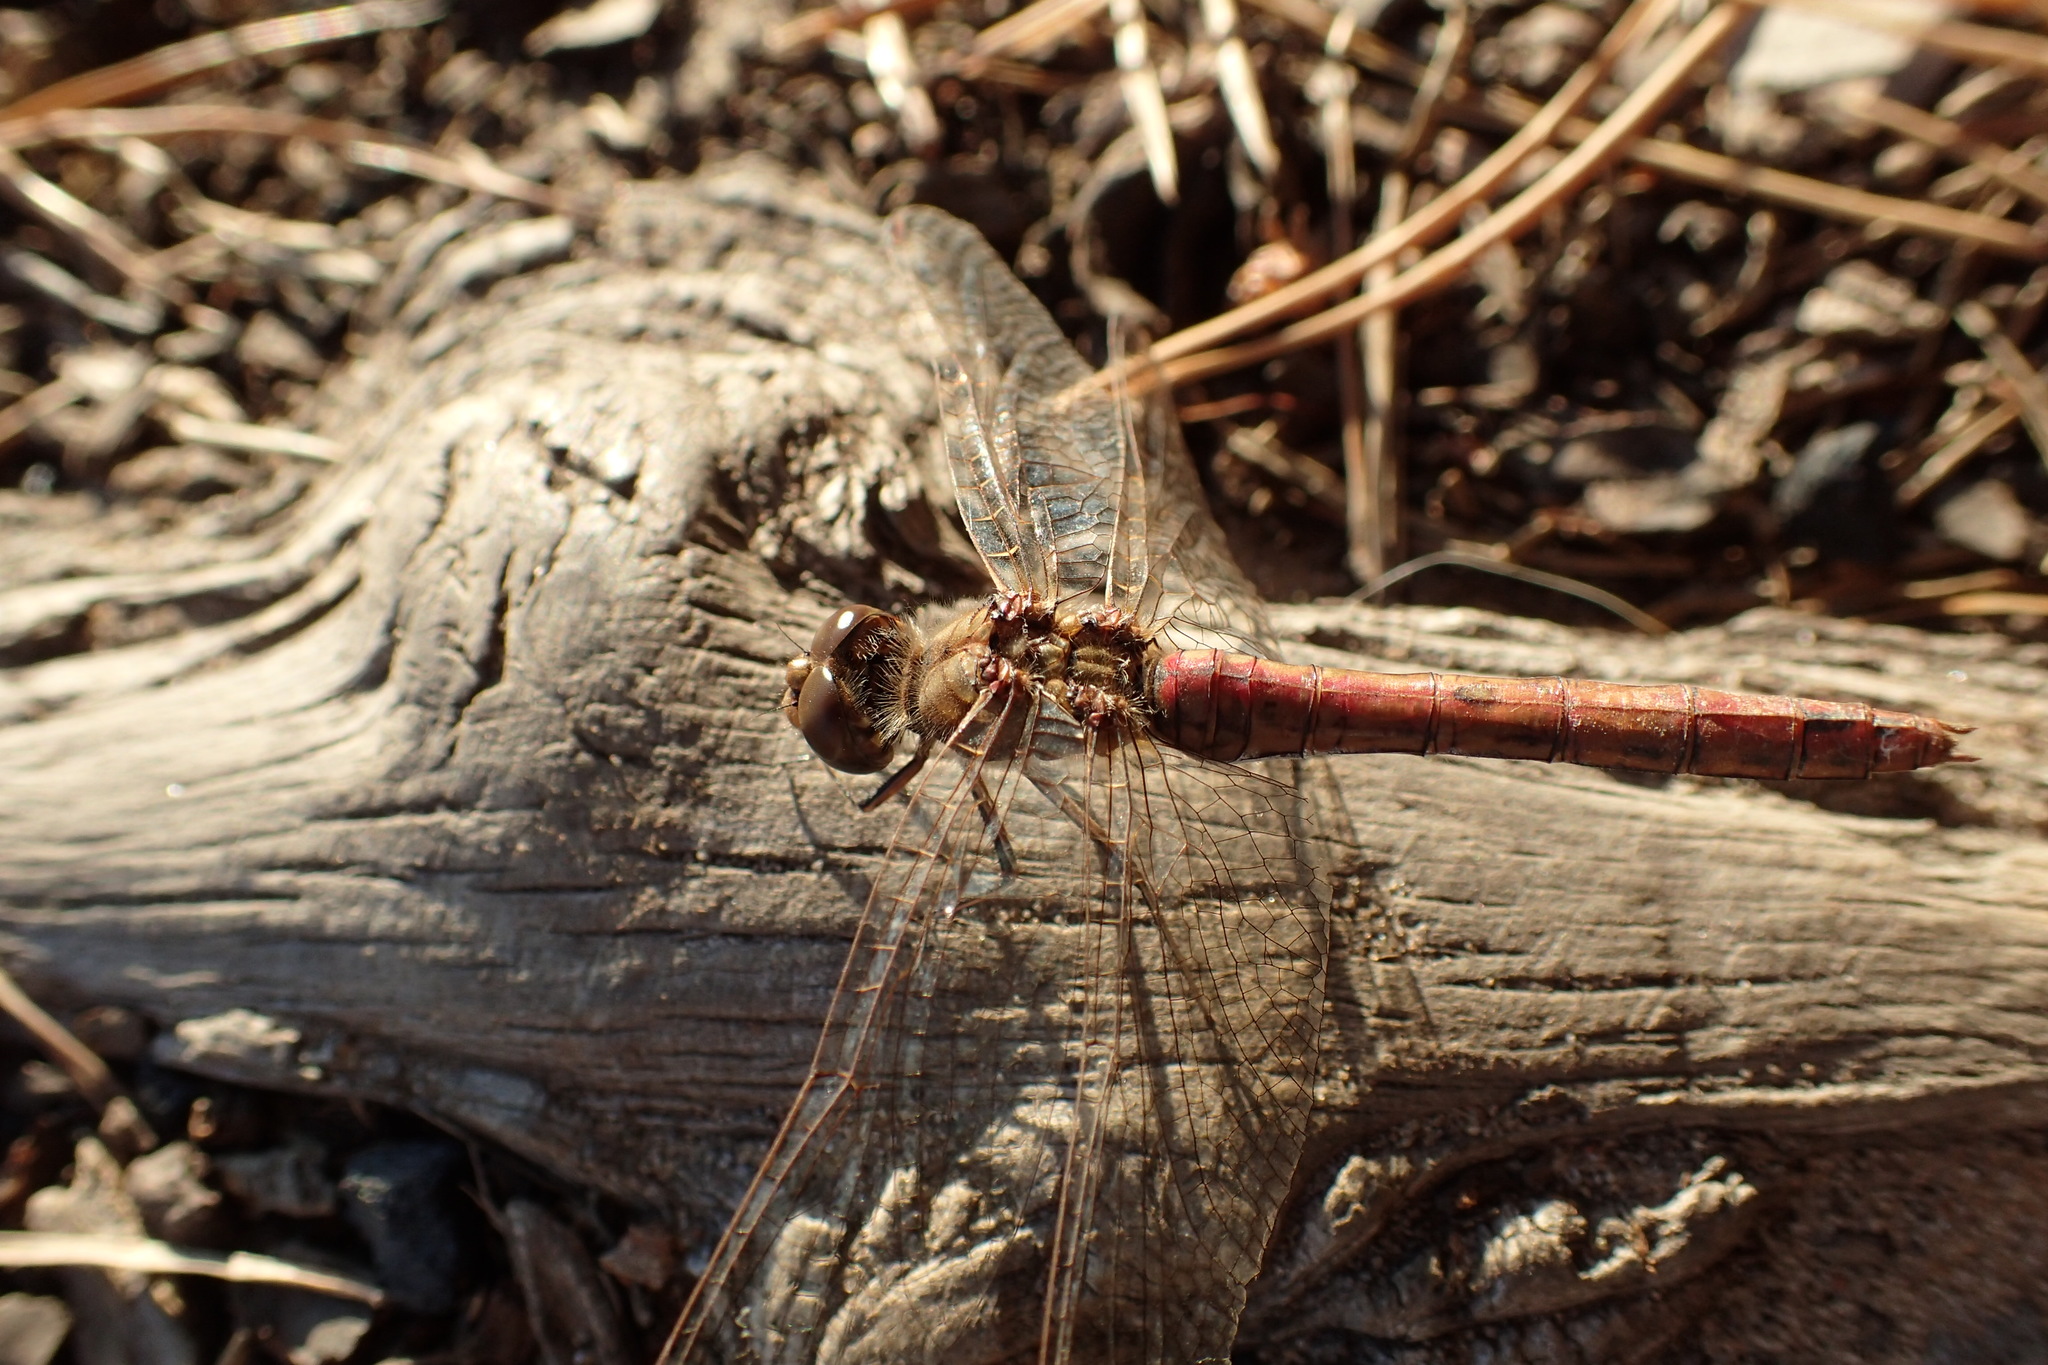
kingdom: Animalia
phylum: Arthropoda
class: Insecta
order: Odonata
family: Libellulidae
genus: Sympetrum
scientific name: Sympetrum vulgatum
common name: Vagrant darter
